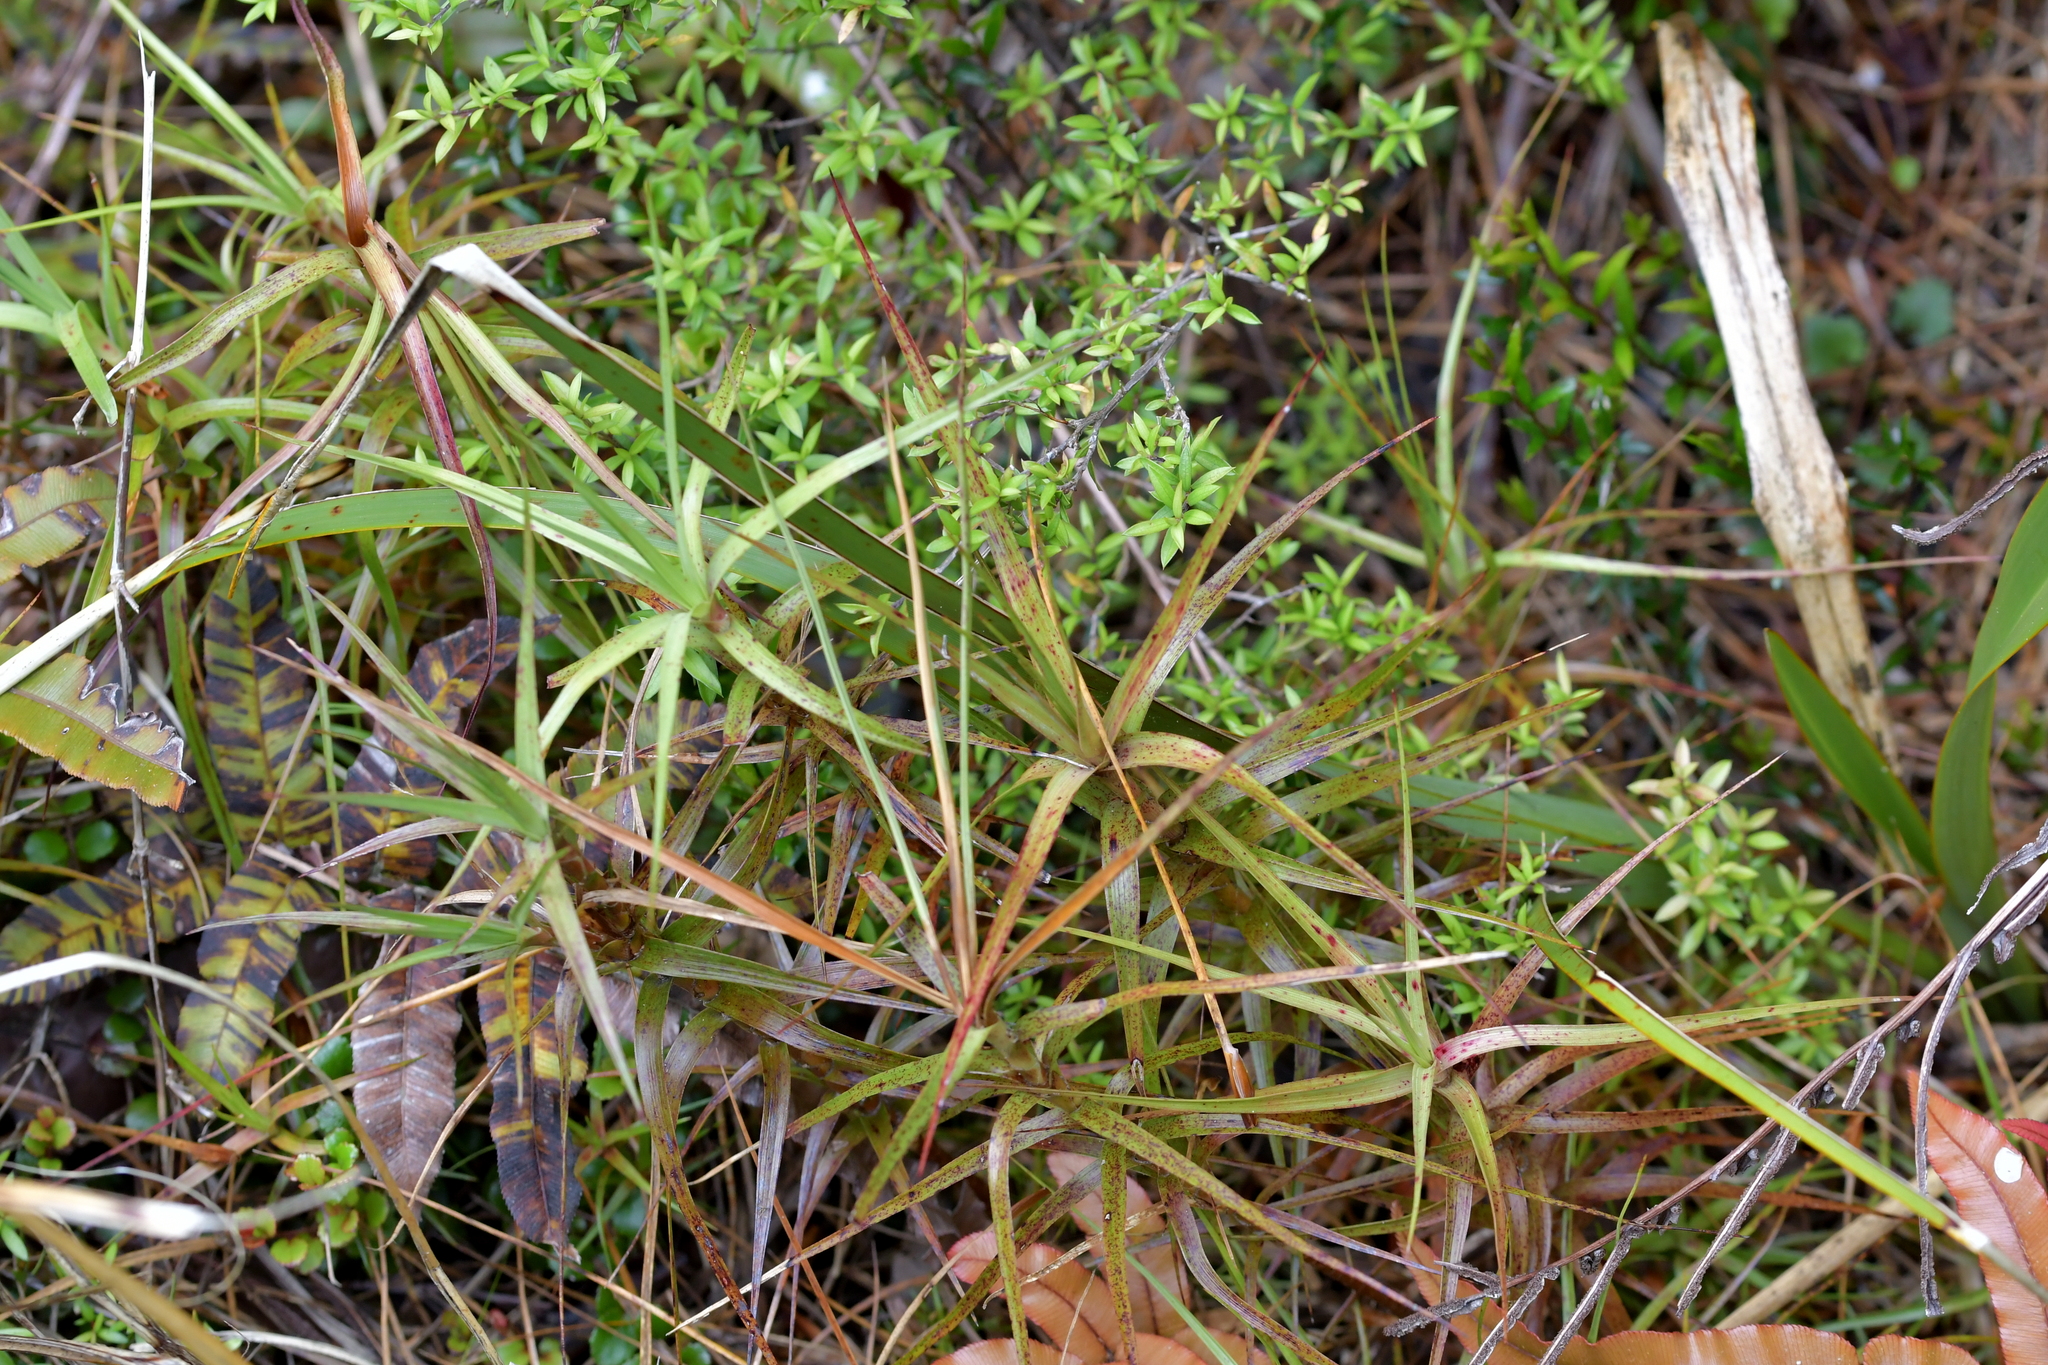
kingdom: Plantae
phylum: Tracheophyta
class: Magnoliopsida
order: Ericales
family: Ericaceae
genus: Dracophyllum
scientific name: Dracophyllum longifolium
